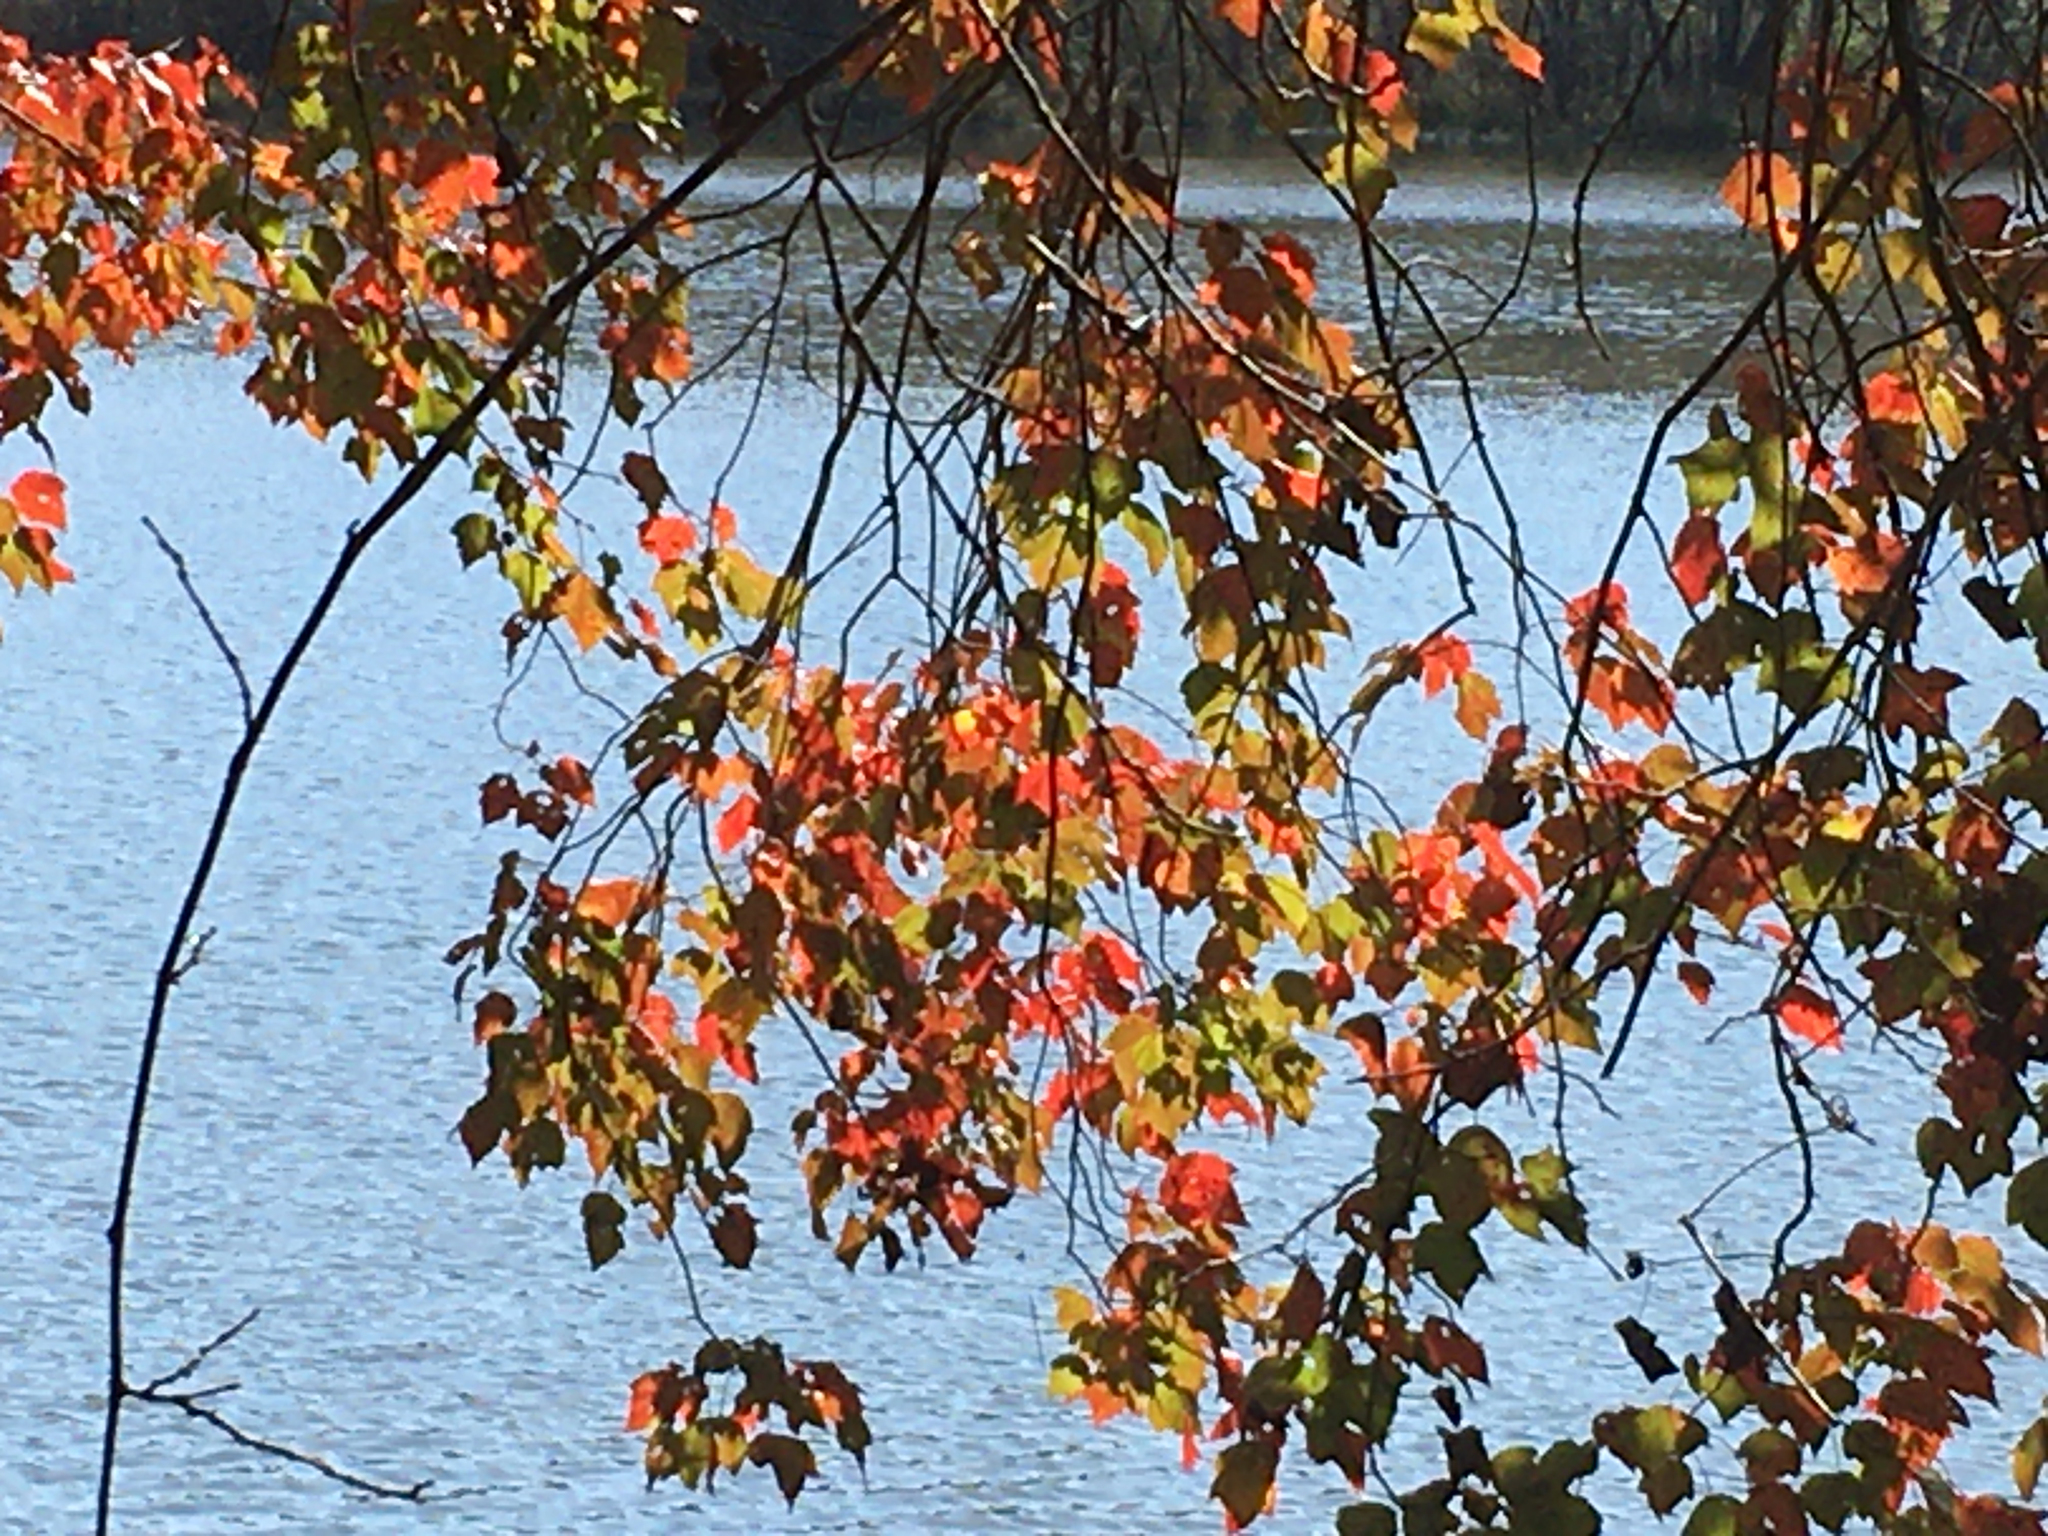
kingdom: Plantae
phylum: Tracheophyta
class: Magnoliopsida
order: Sapindales
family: Sapindaceae
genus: Acer
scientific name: Acer rubrum
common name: Red maple
